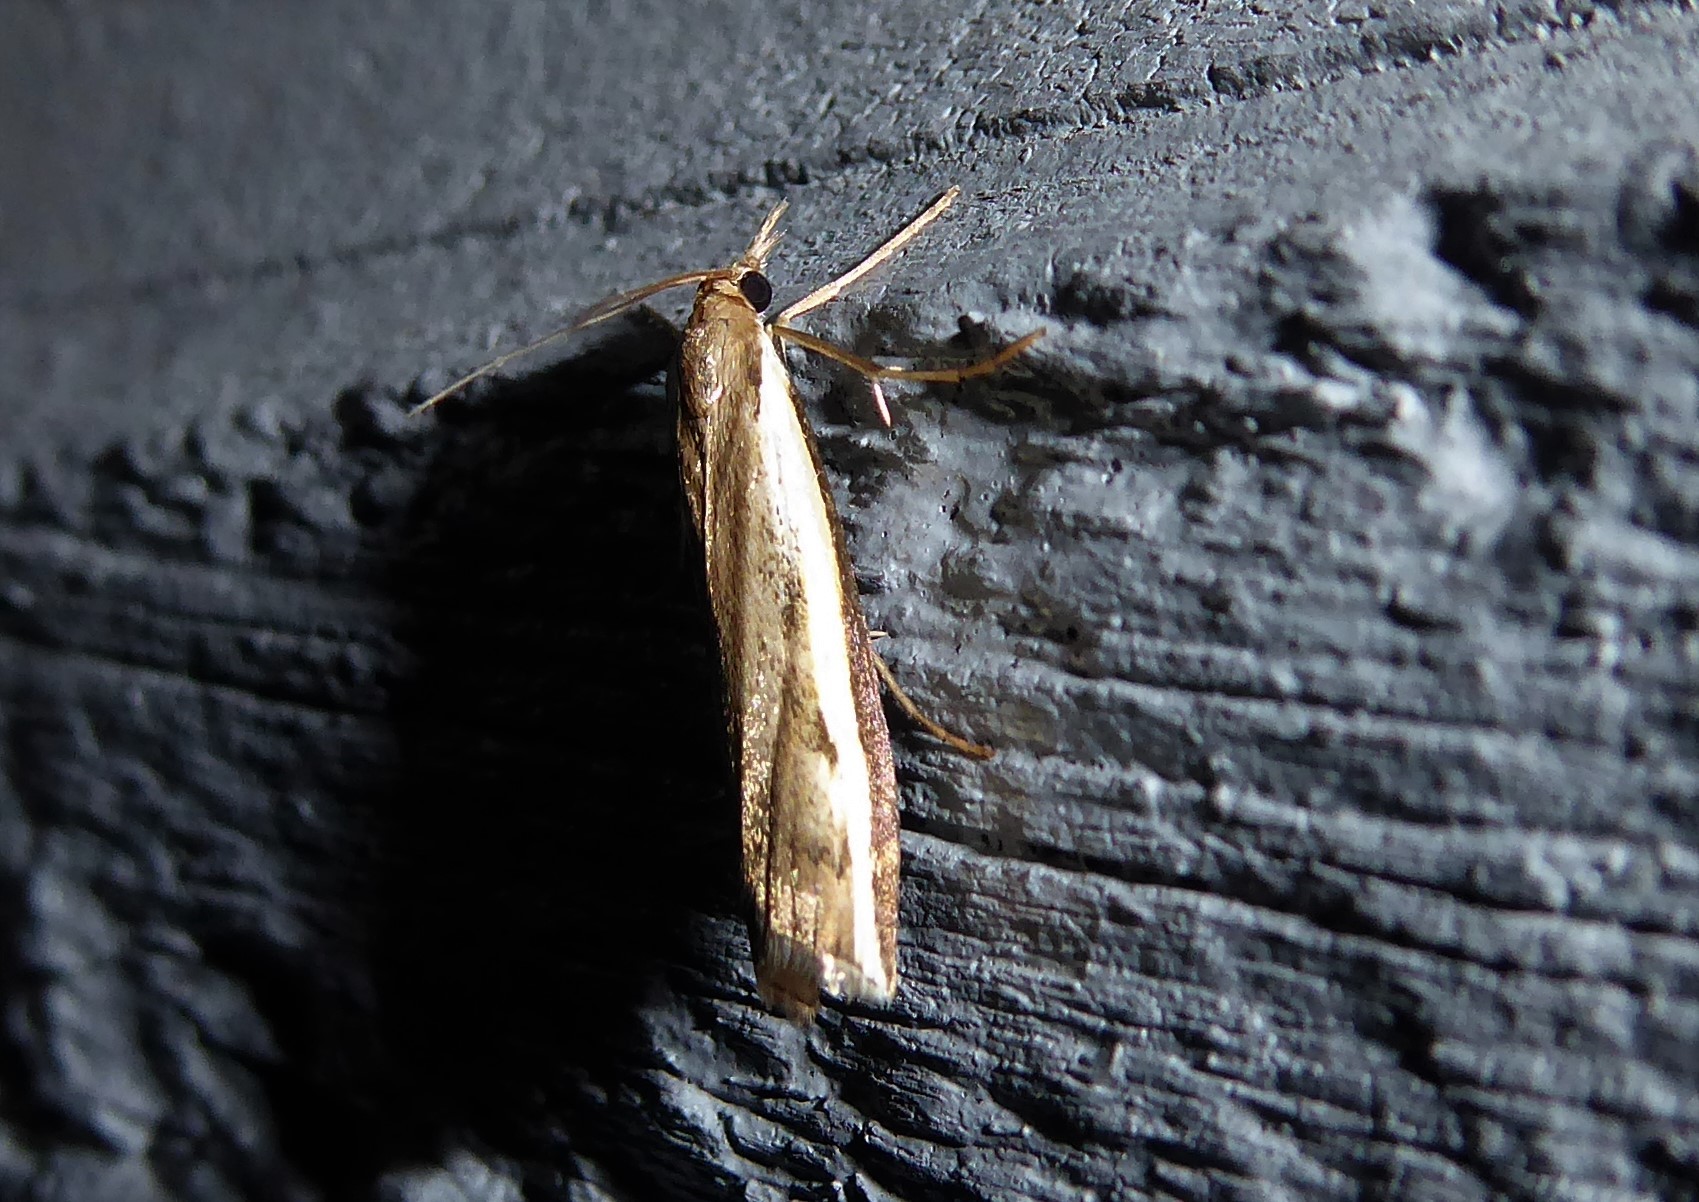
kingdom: Animalia
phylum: Arthropoda
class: Insecta
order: Lepidoptera
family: Crambidae
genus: Orocrambus
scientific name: Orocrambus flexuosellus
